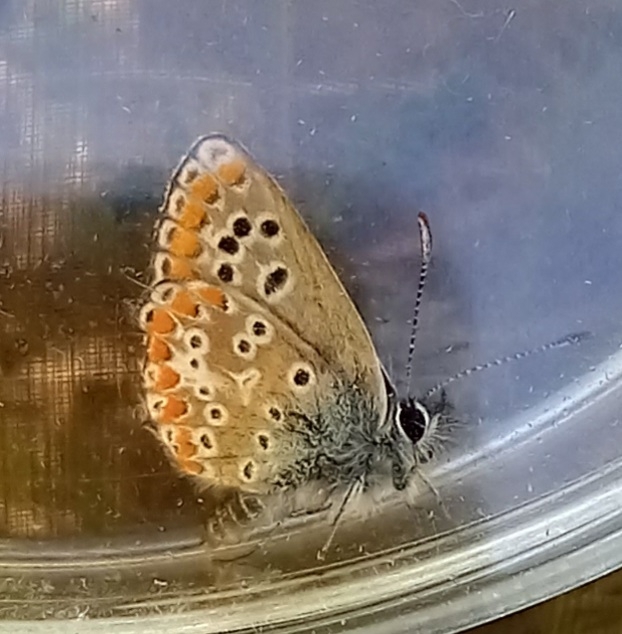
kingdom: Animalia
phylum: Arthropoda
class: Insecta
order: Lepidoptera
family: Lycaenidae
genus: Aricia
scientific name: Aricia cramera
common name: Eschscholtz´s brown  argus
